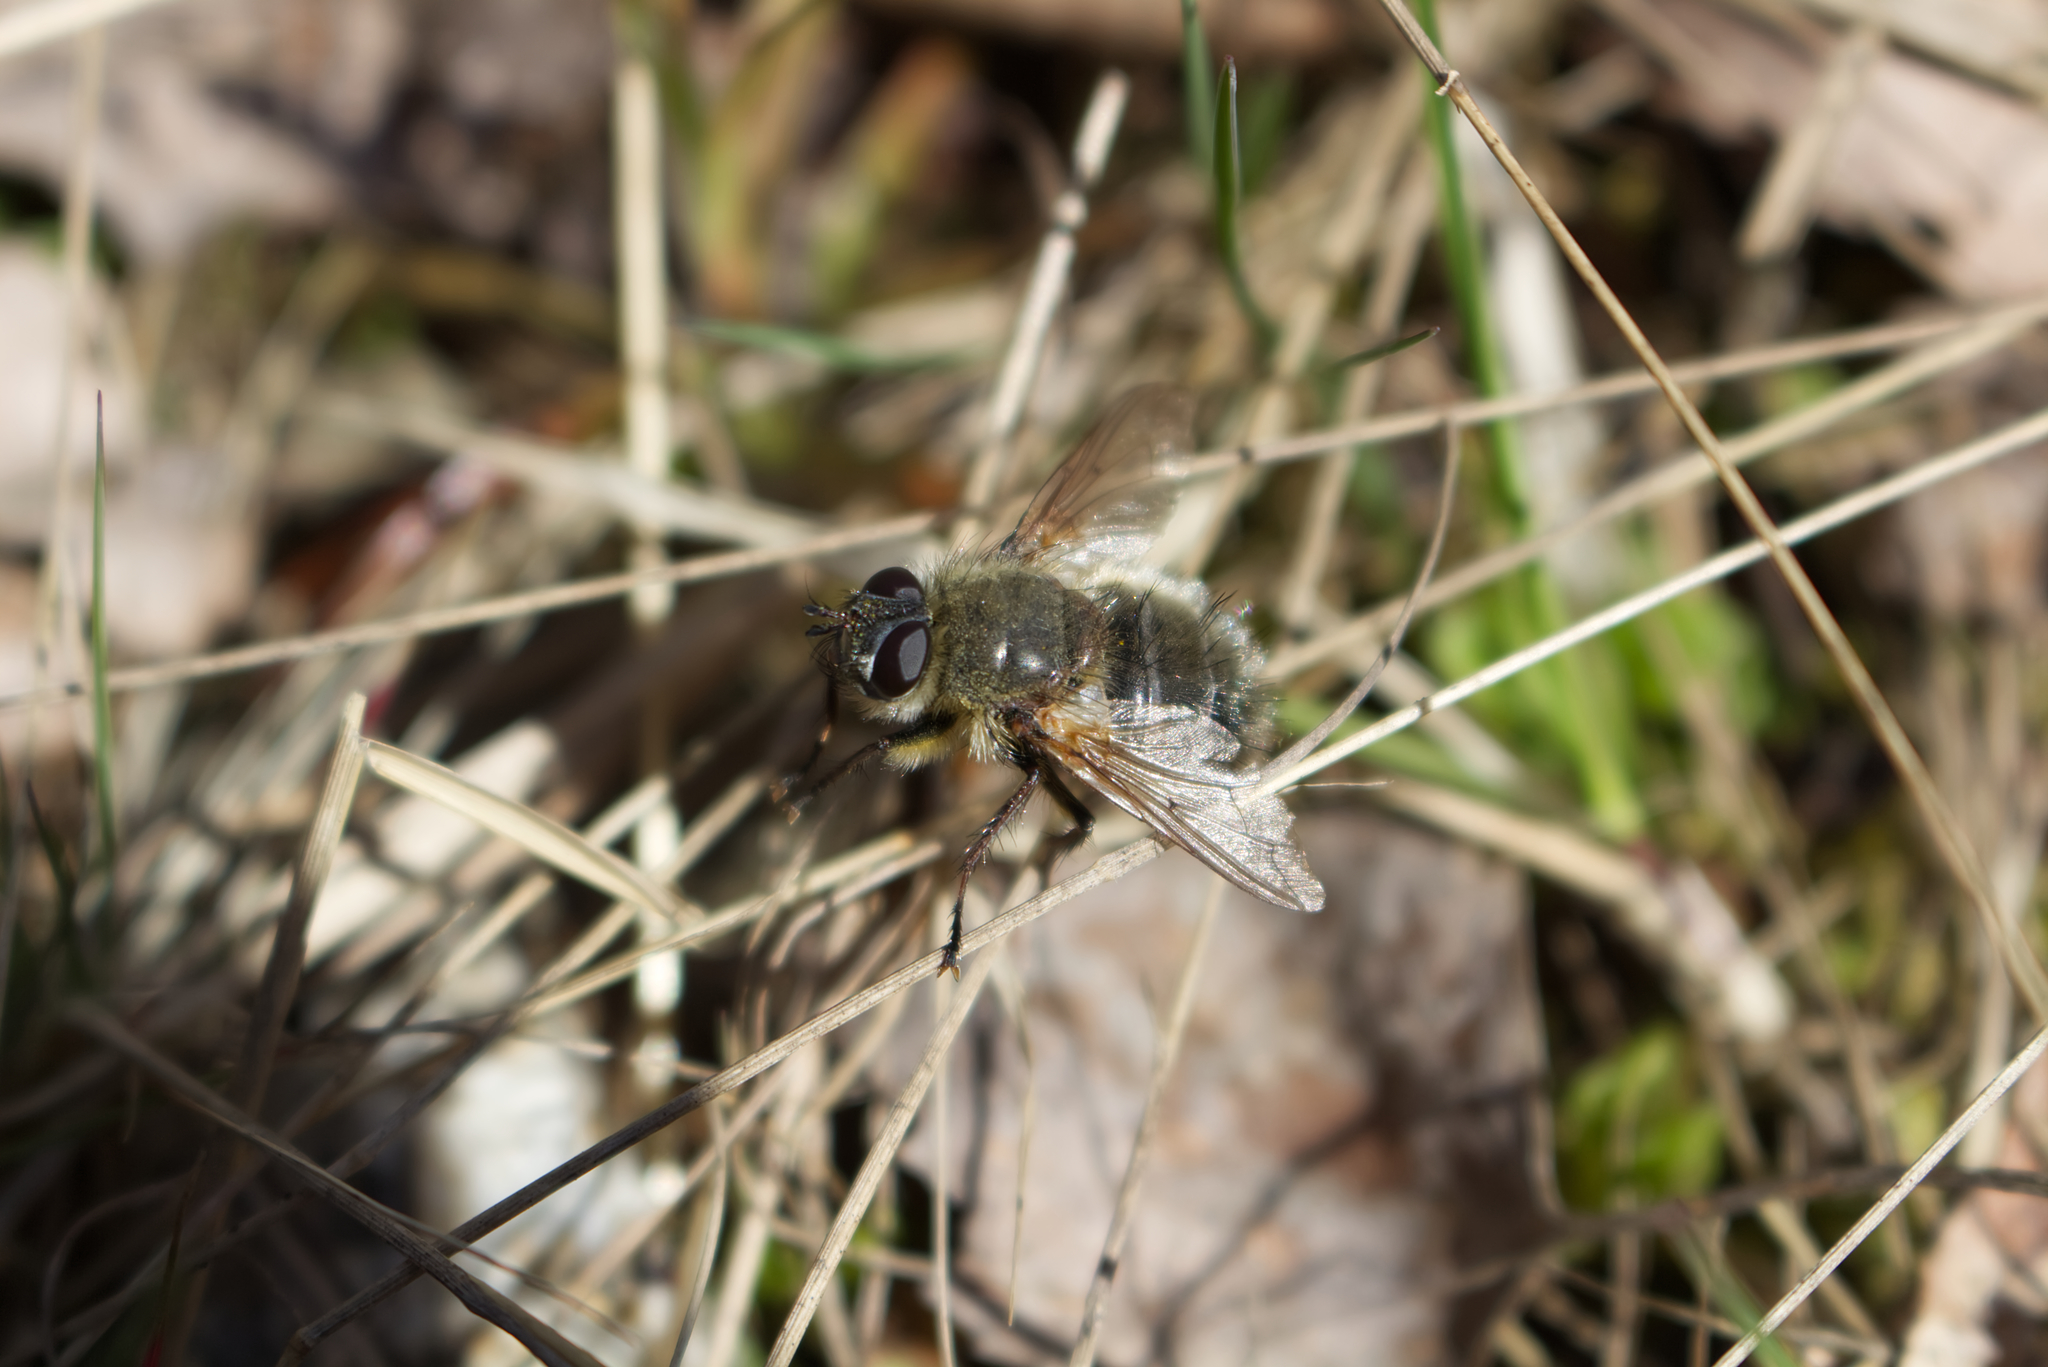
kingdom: Animalia
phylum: Arthropoda
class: Insecta
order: Diptera
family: Tachinidae
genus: Tachina
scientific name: Tachina ursina
